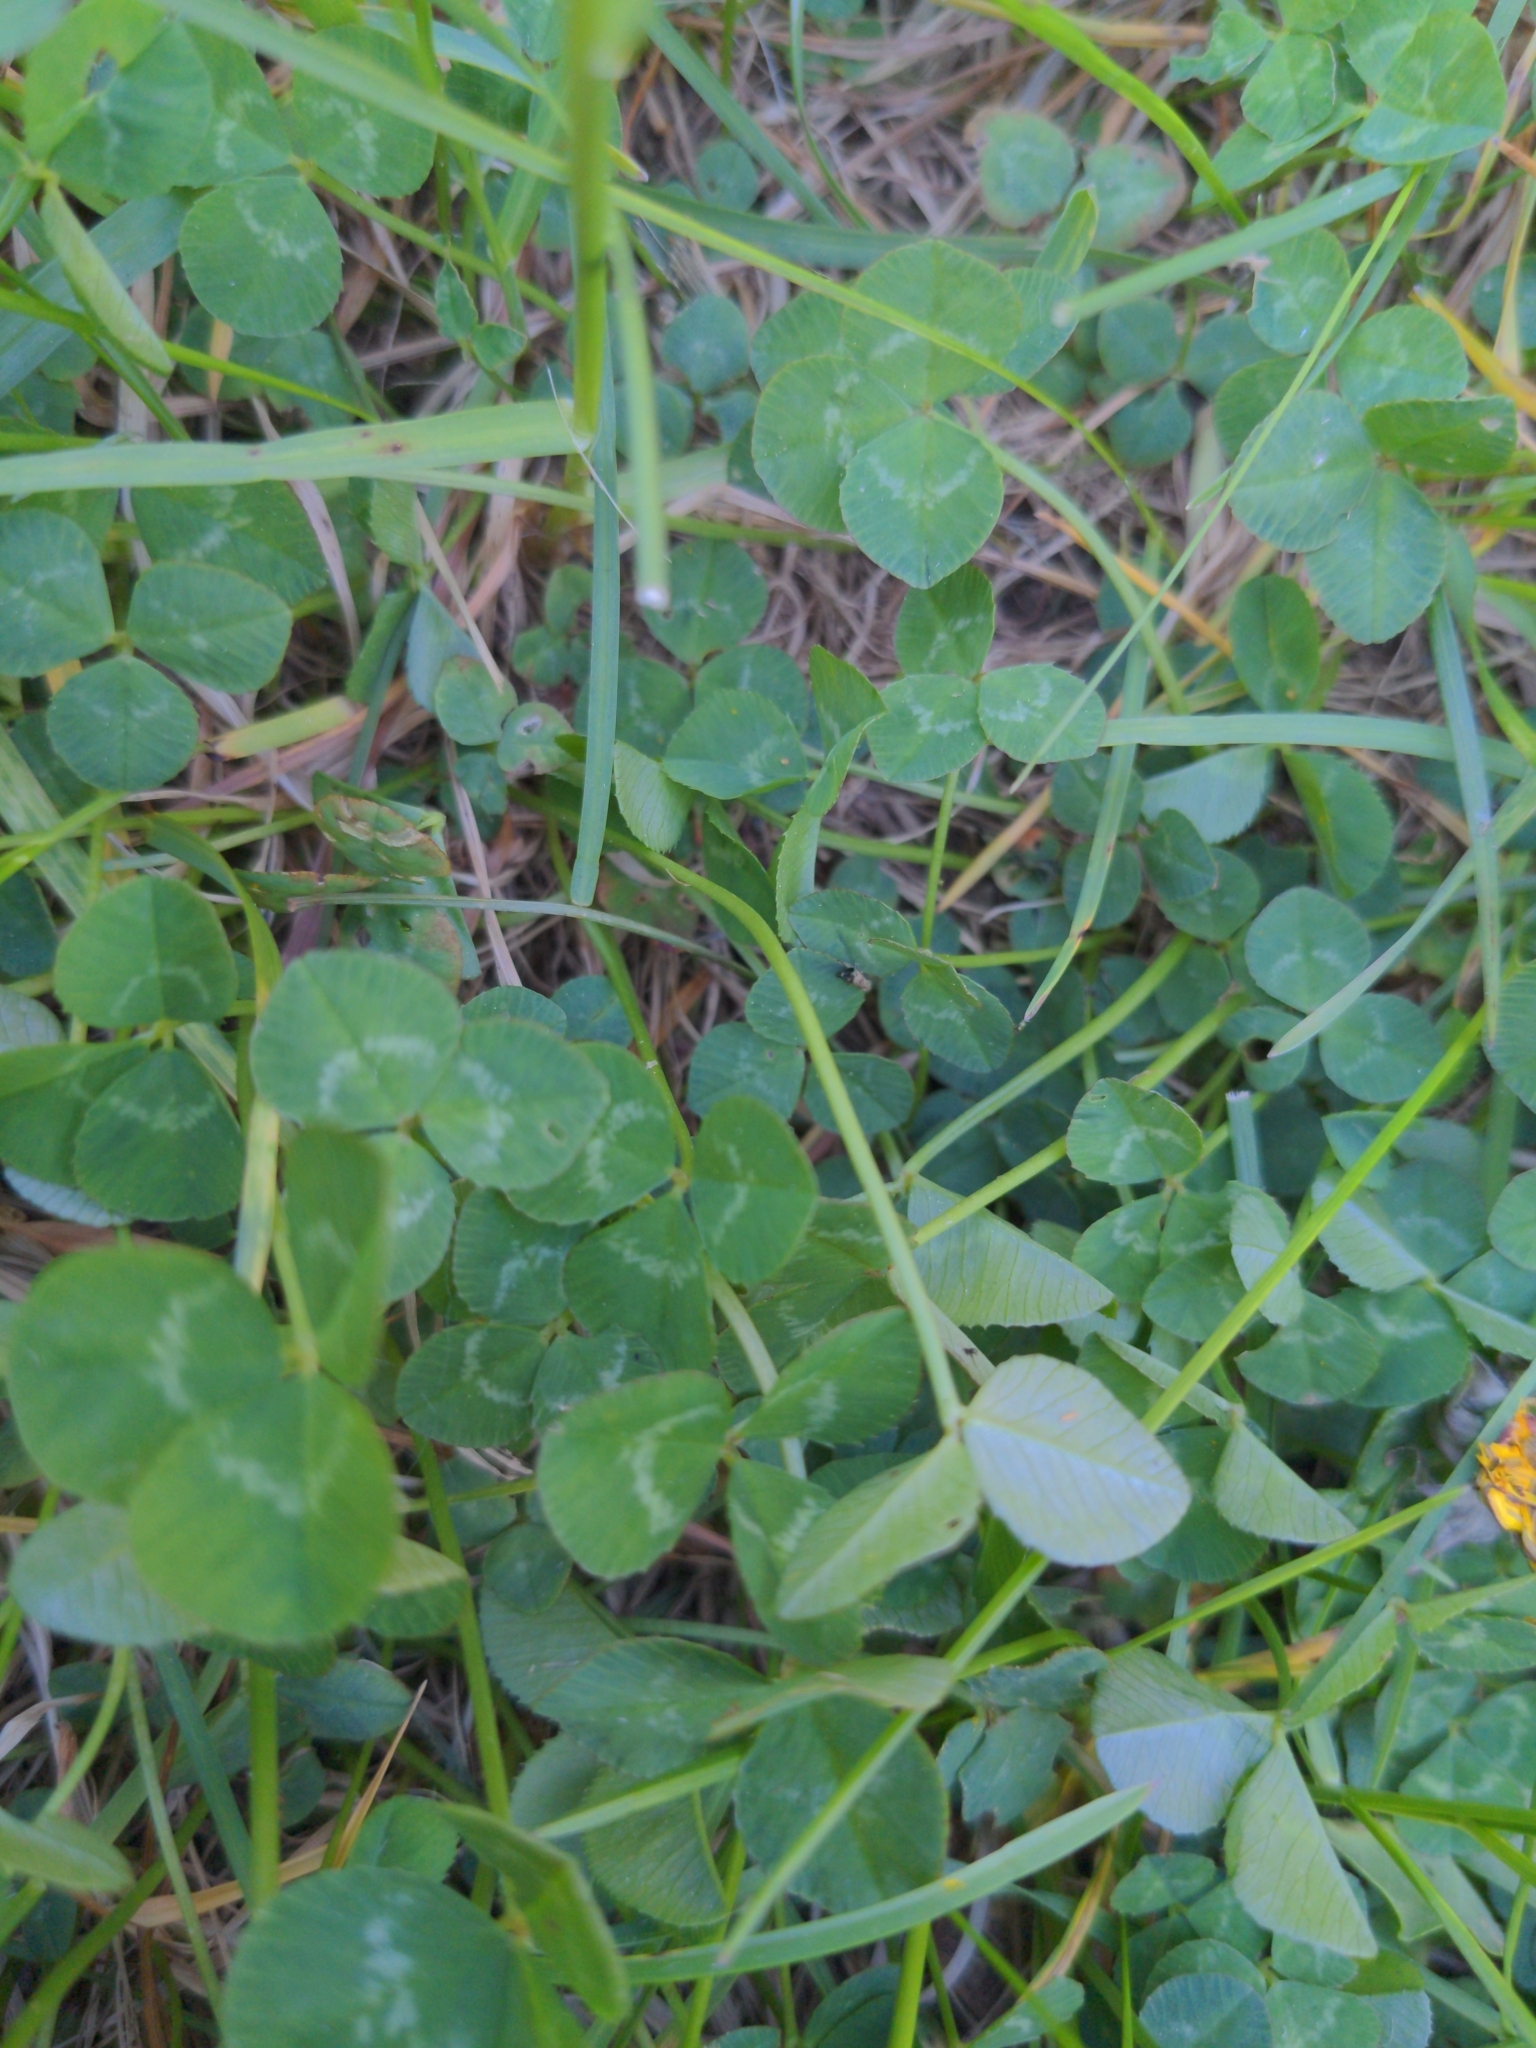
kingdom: Plantae
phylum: Tracheophyta
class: Magnoliopsida
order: Fabales
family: Fabaceae
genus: Trifolium
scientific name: Trifolium repens
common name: White clover
